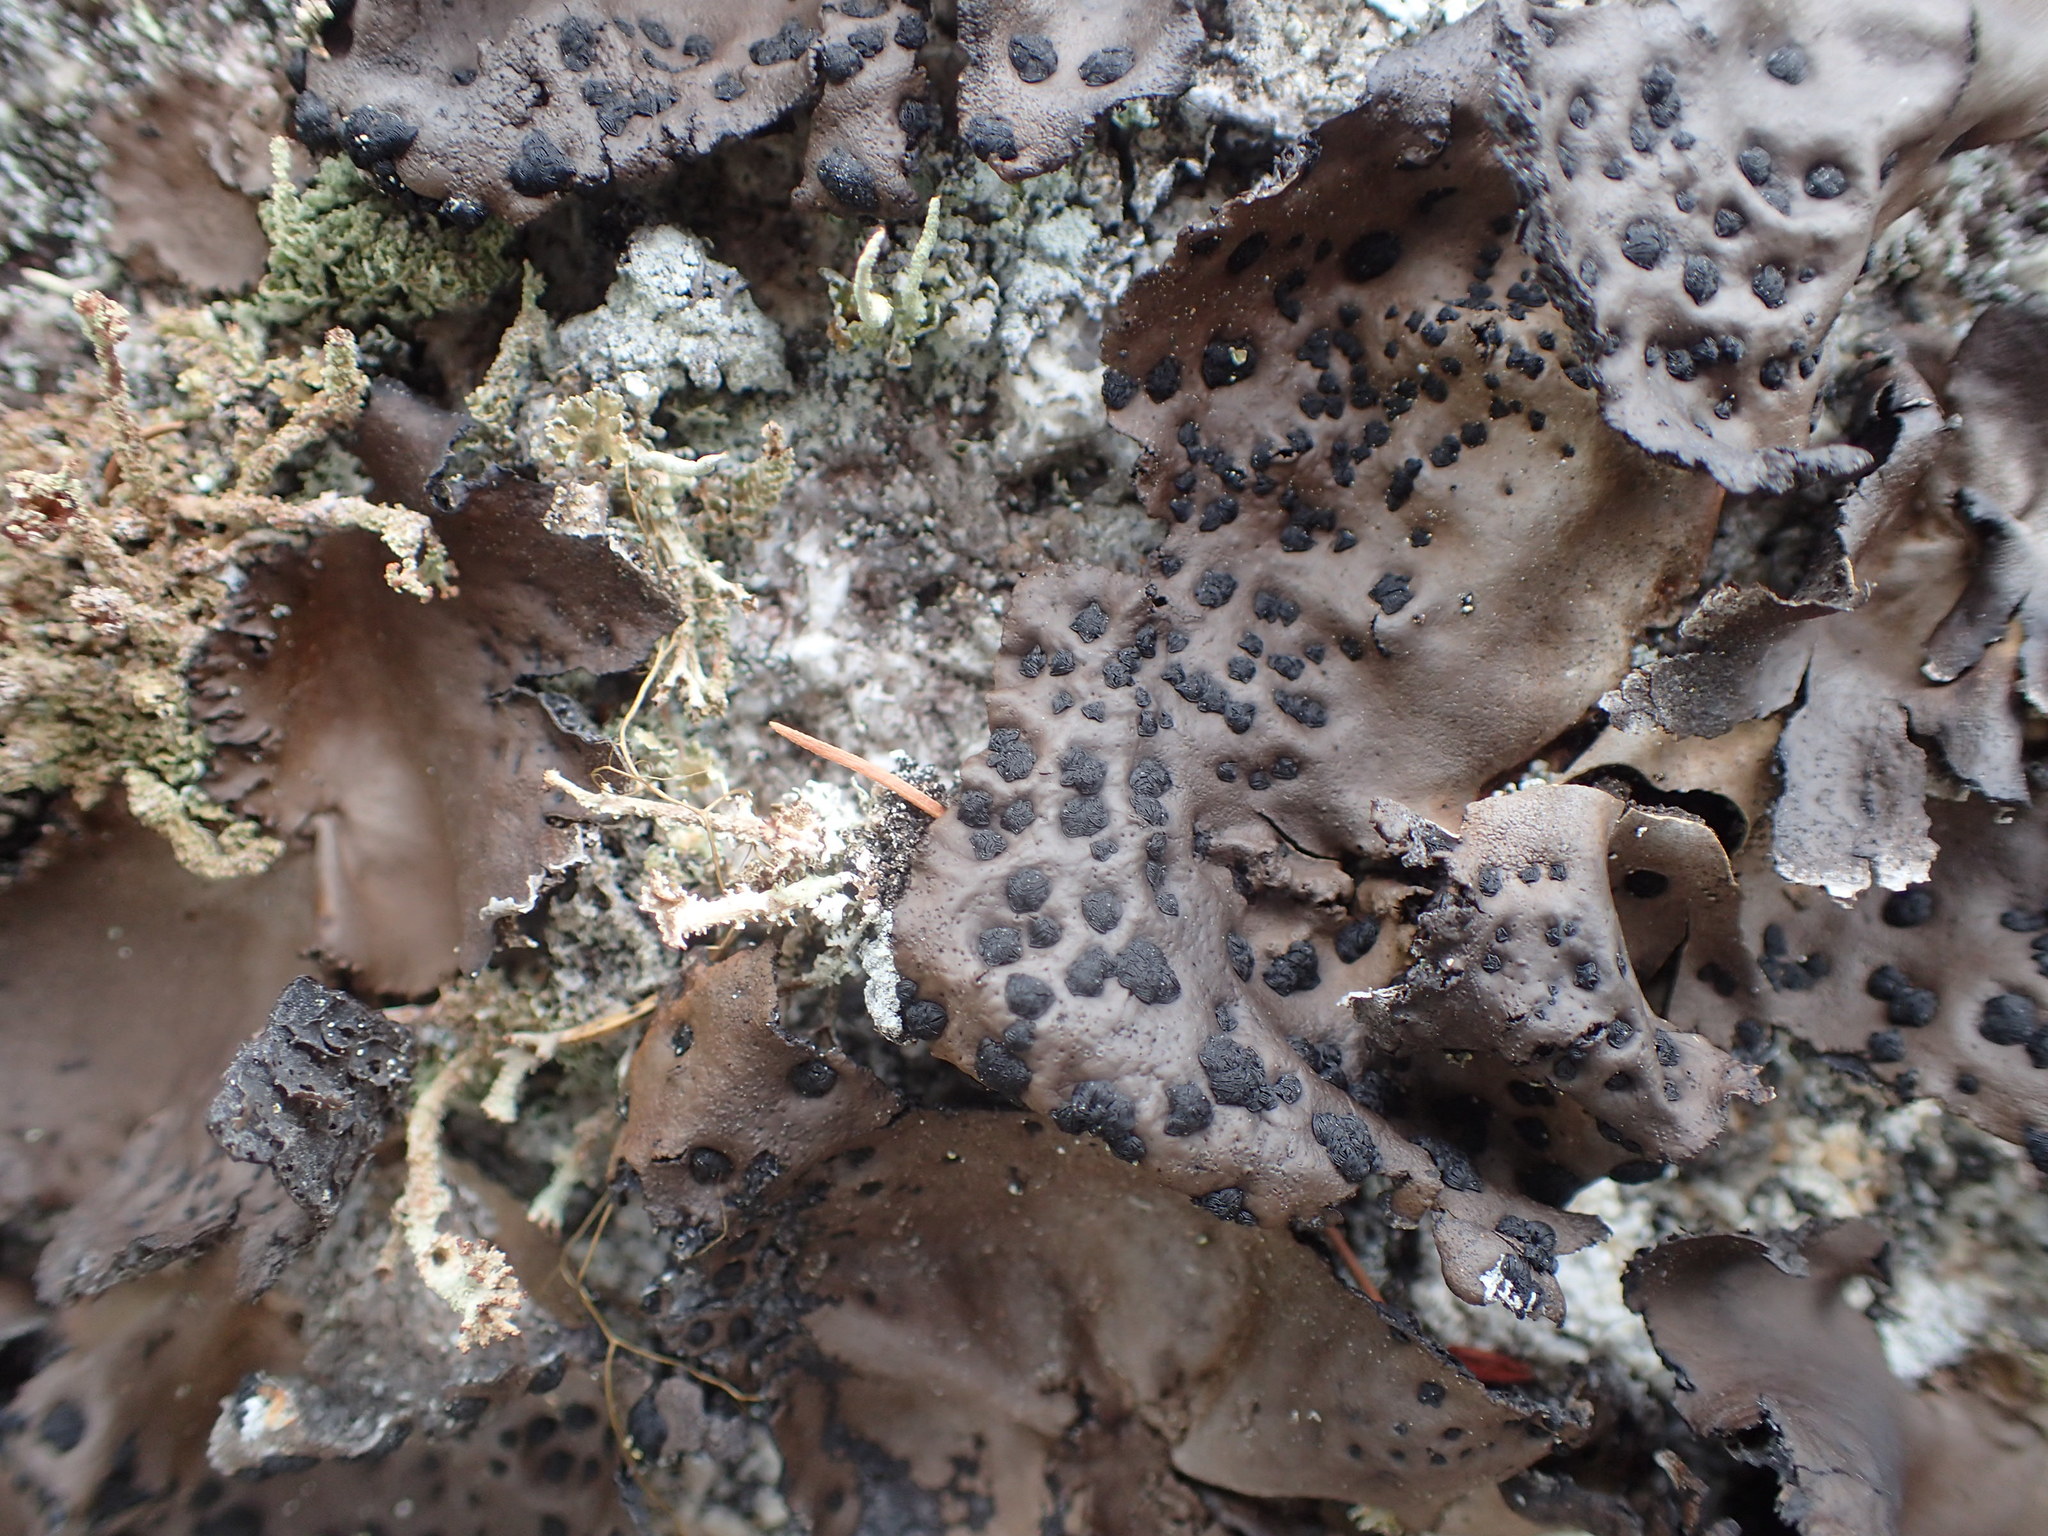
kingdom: Fungi
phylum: Ascomycota
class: Lecanoromycetes
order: Umbilicariales
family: Umbilicariaceae
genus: Umbilicaria
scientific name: Umbilicaria muhlenbergii
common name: Lesser rocktripe
